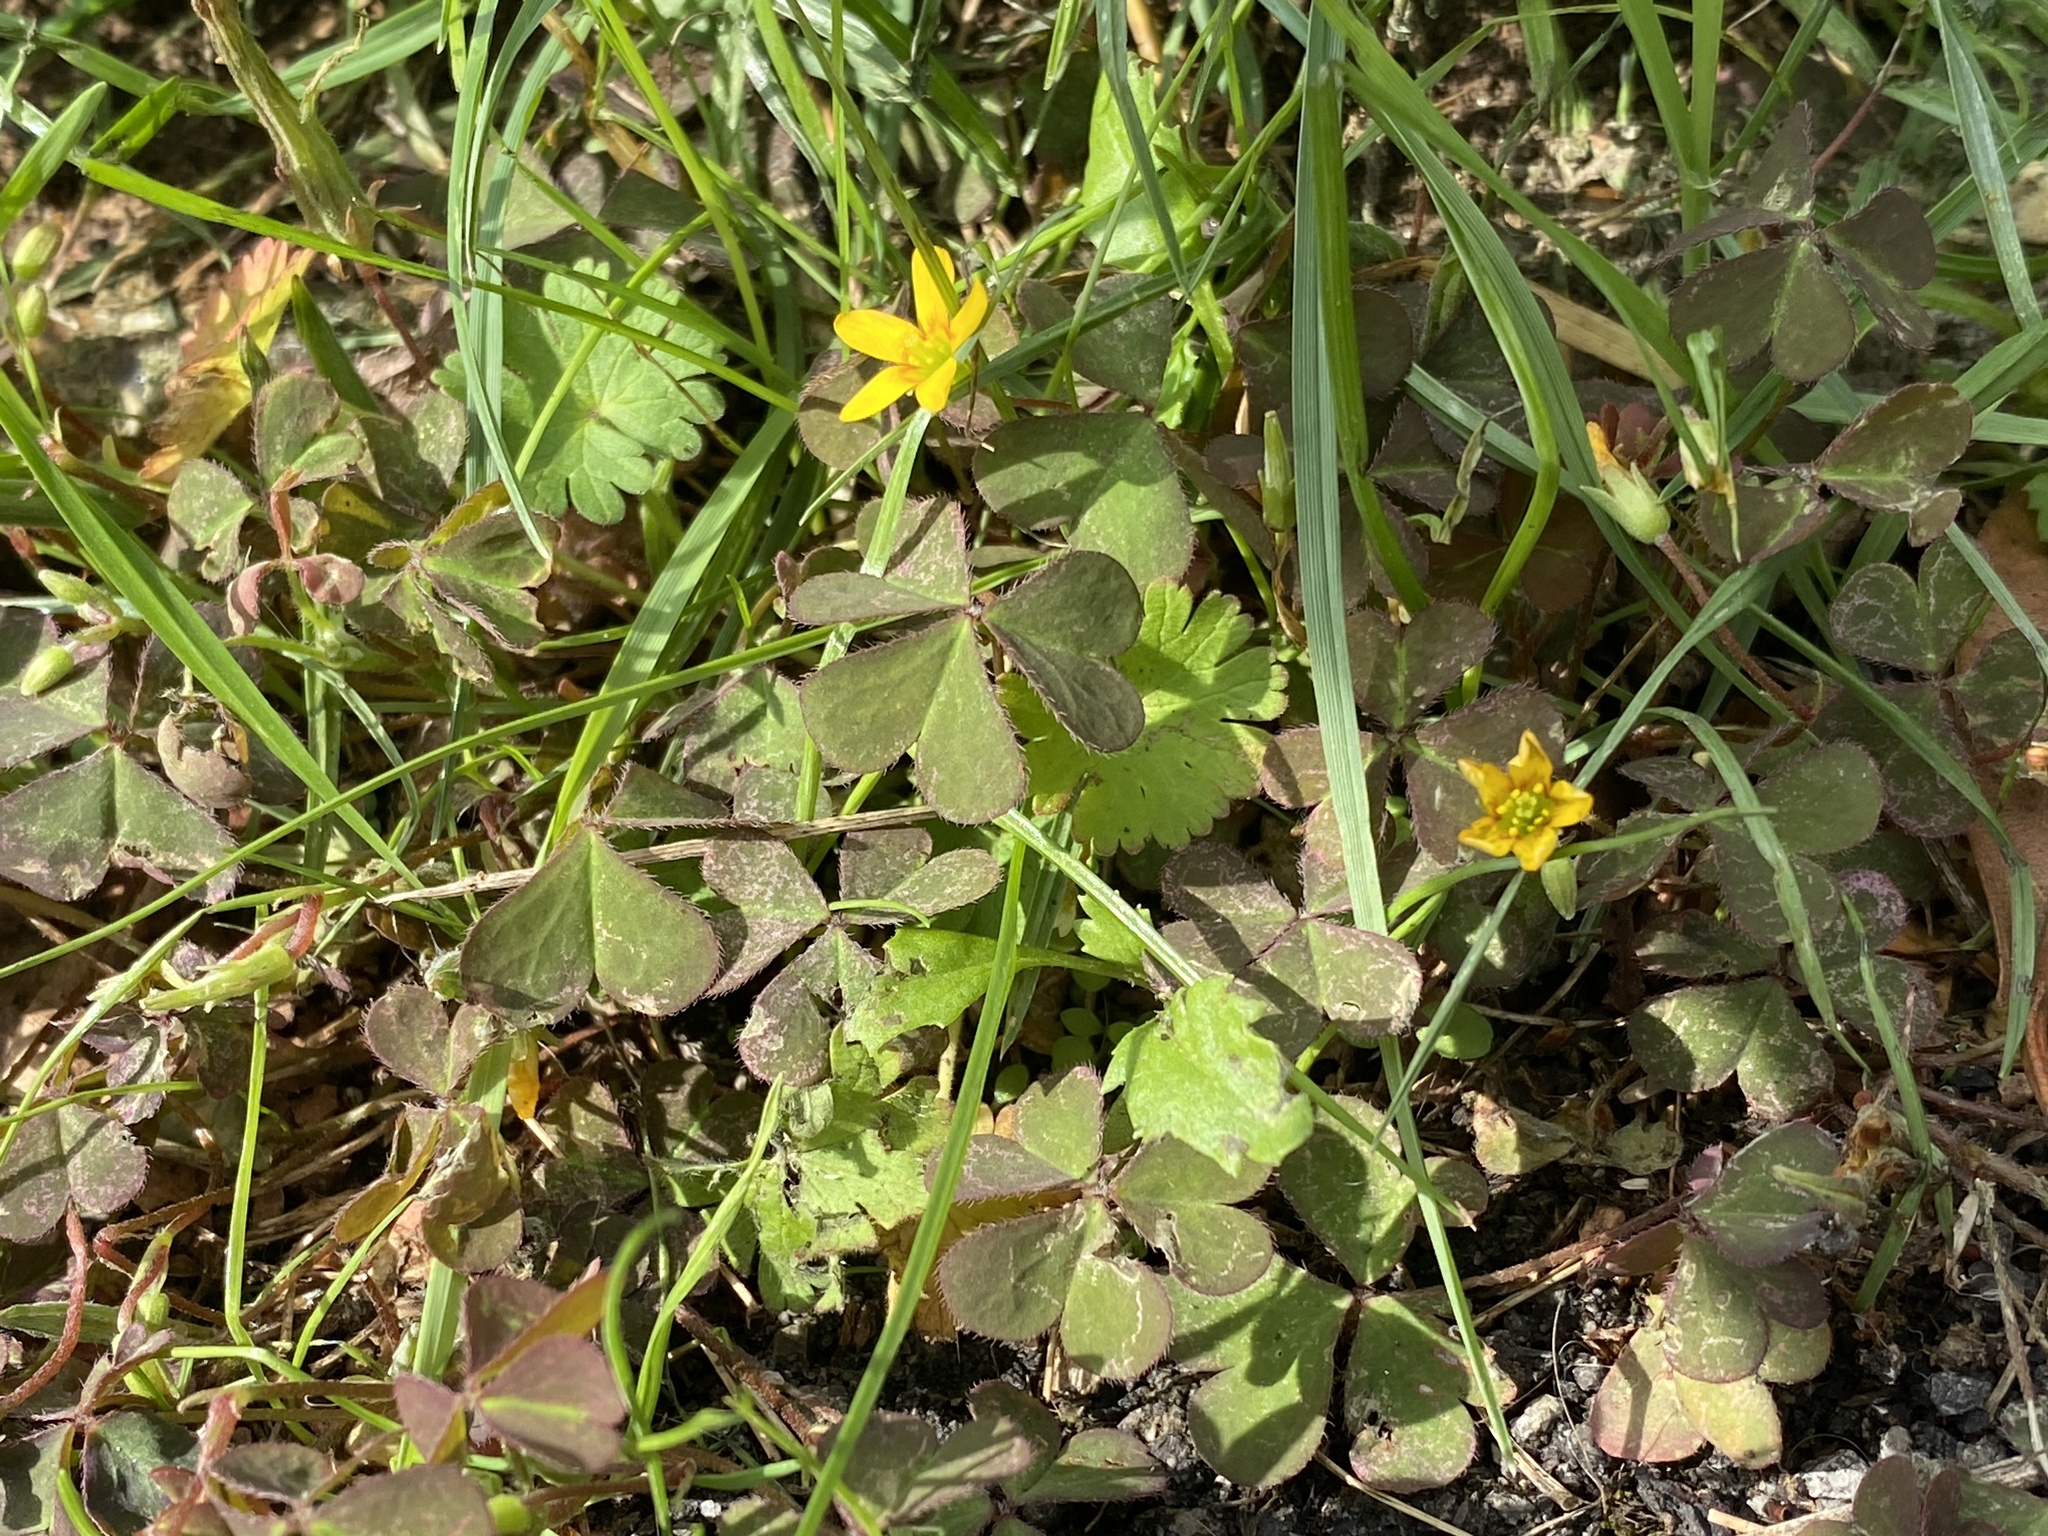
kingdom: Plantae
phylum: Tracheophyta
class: Magnoliopsida
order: Oxalidales
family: Oxalidaceae
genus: Oxalis
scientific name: Oxalis corniculata
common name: Procumbent yellow-sorrel
